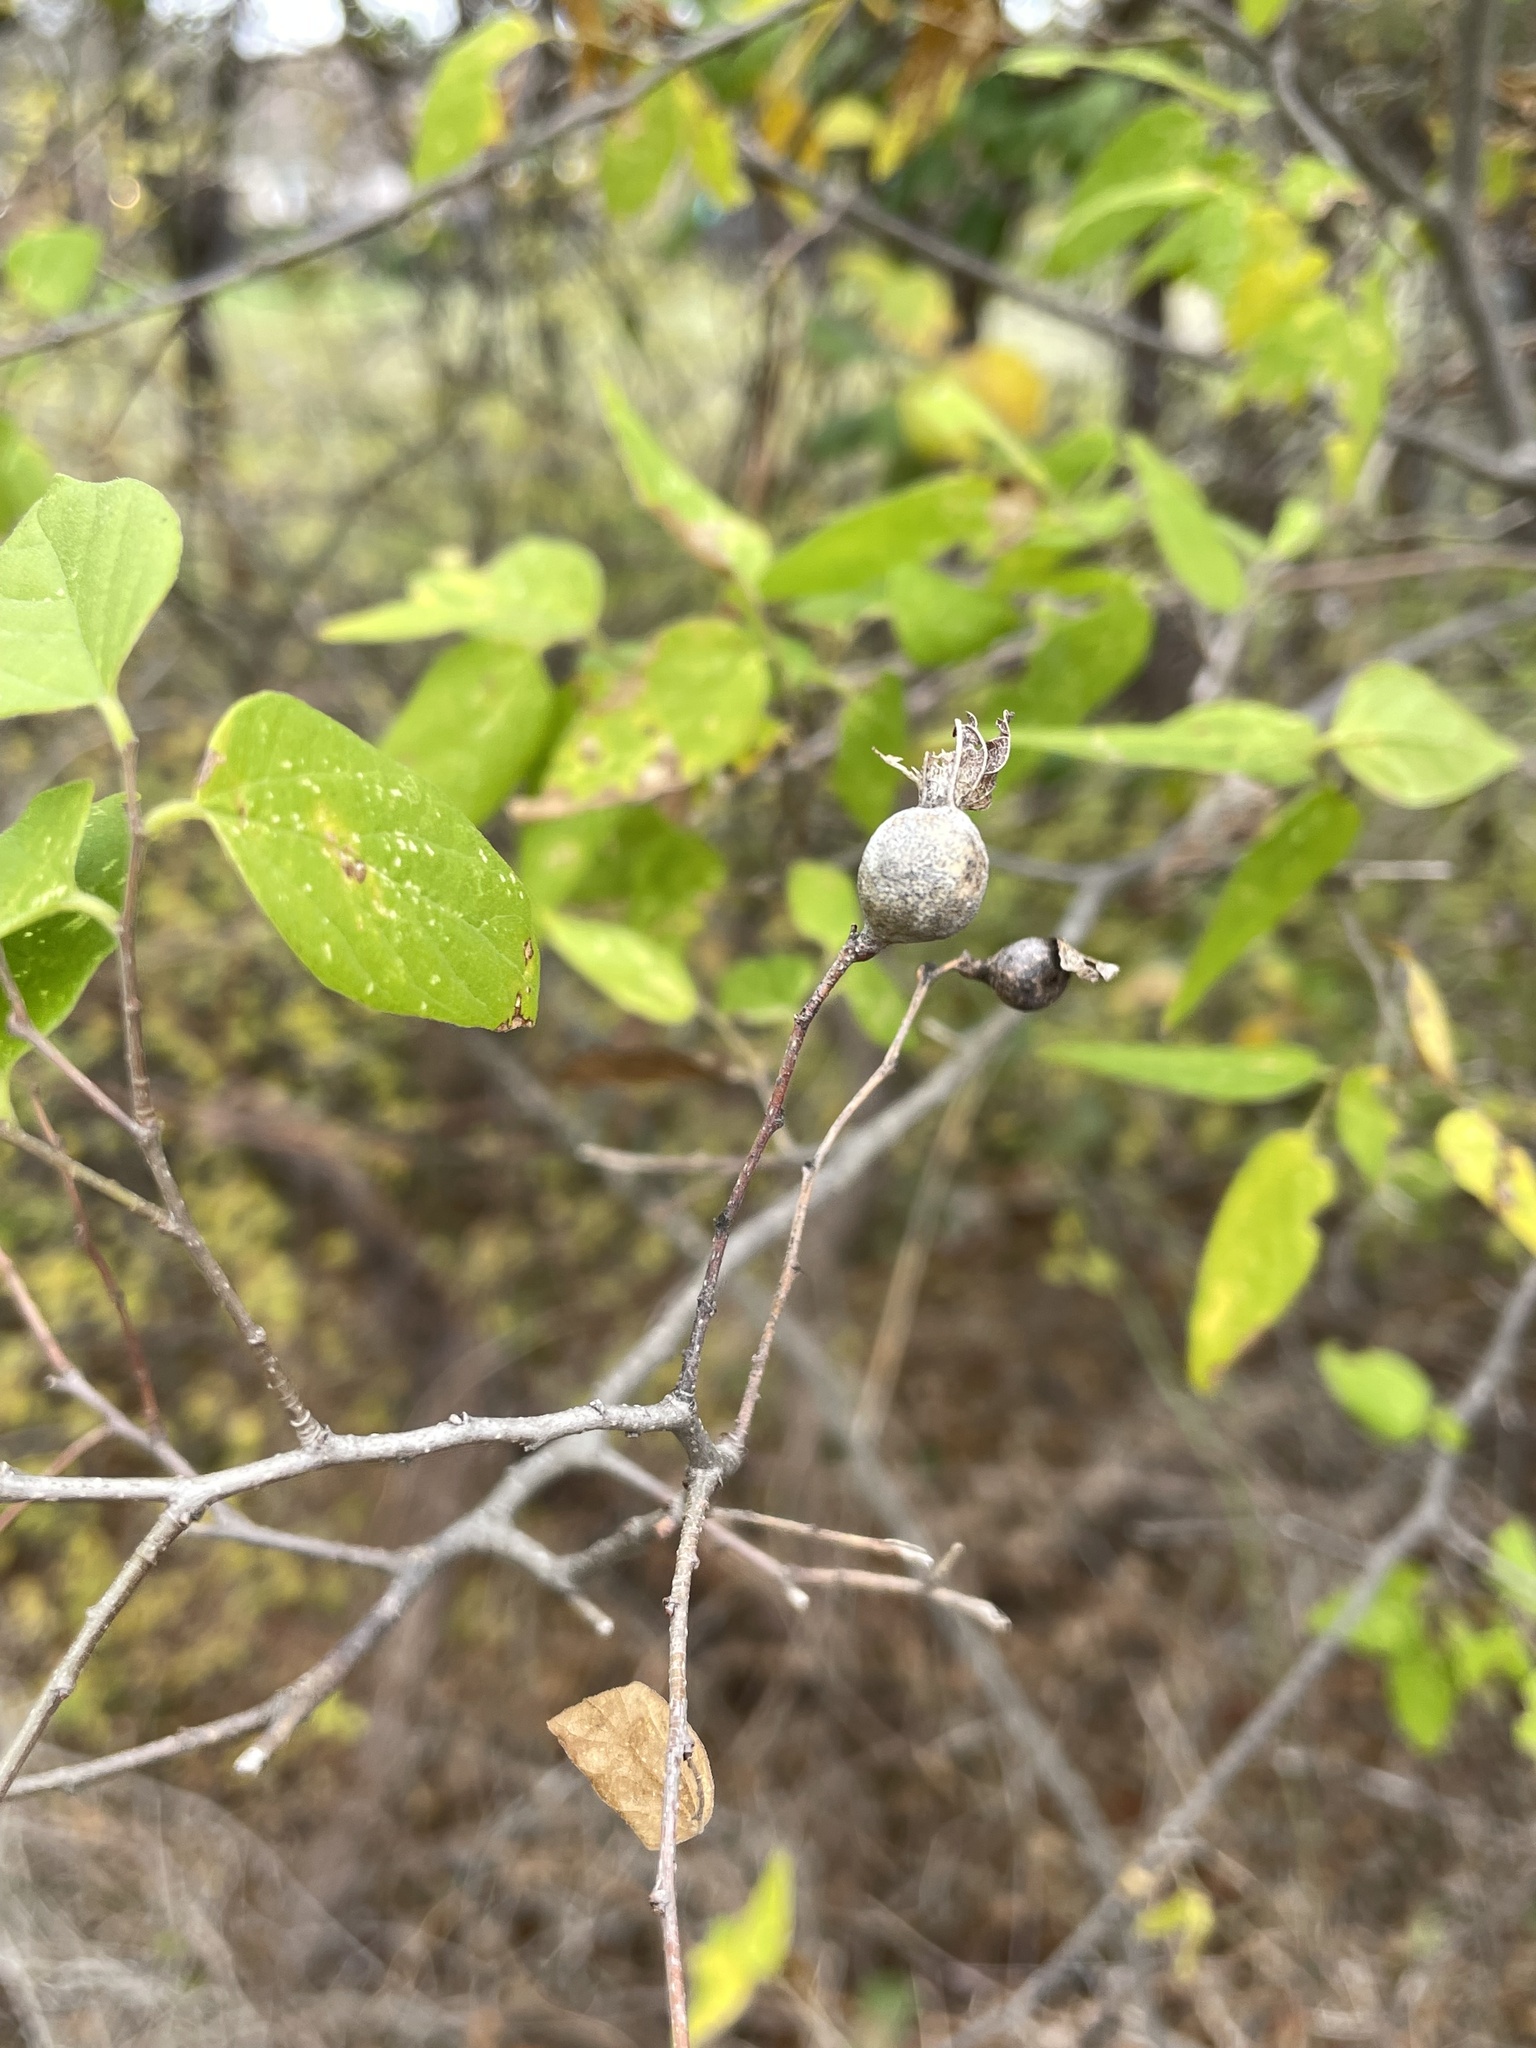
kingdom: Animalia
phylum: Arthropoda
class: Insecta
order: Hemiptera
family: Aphalaridae
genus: Pachypsylla
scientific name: Pachypsylla venusta
